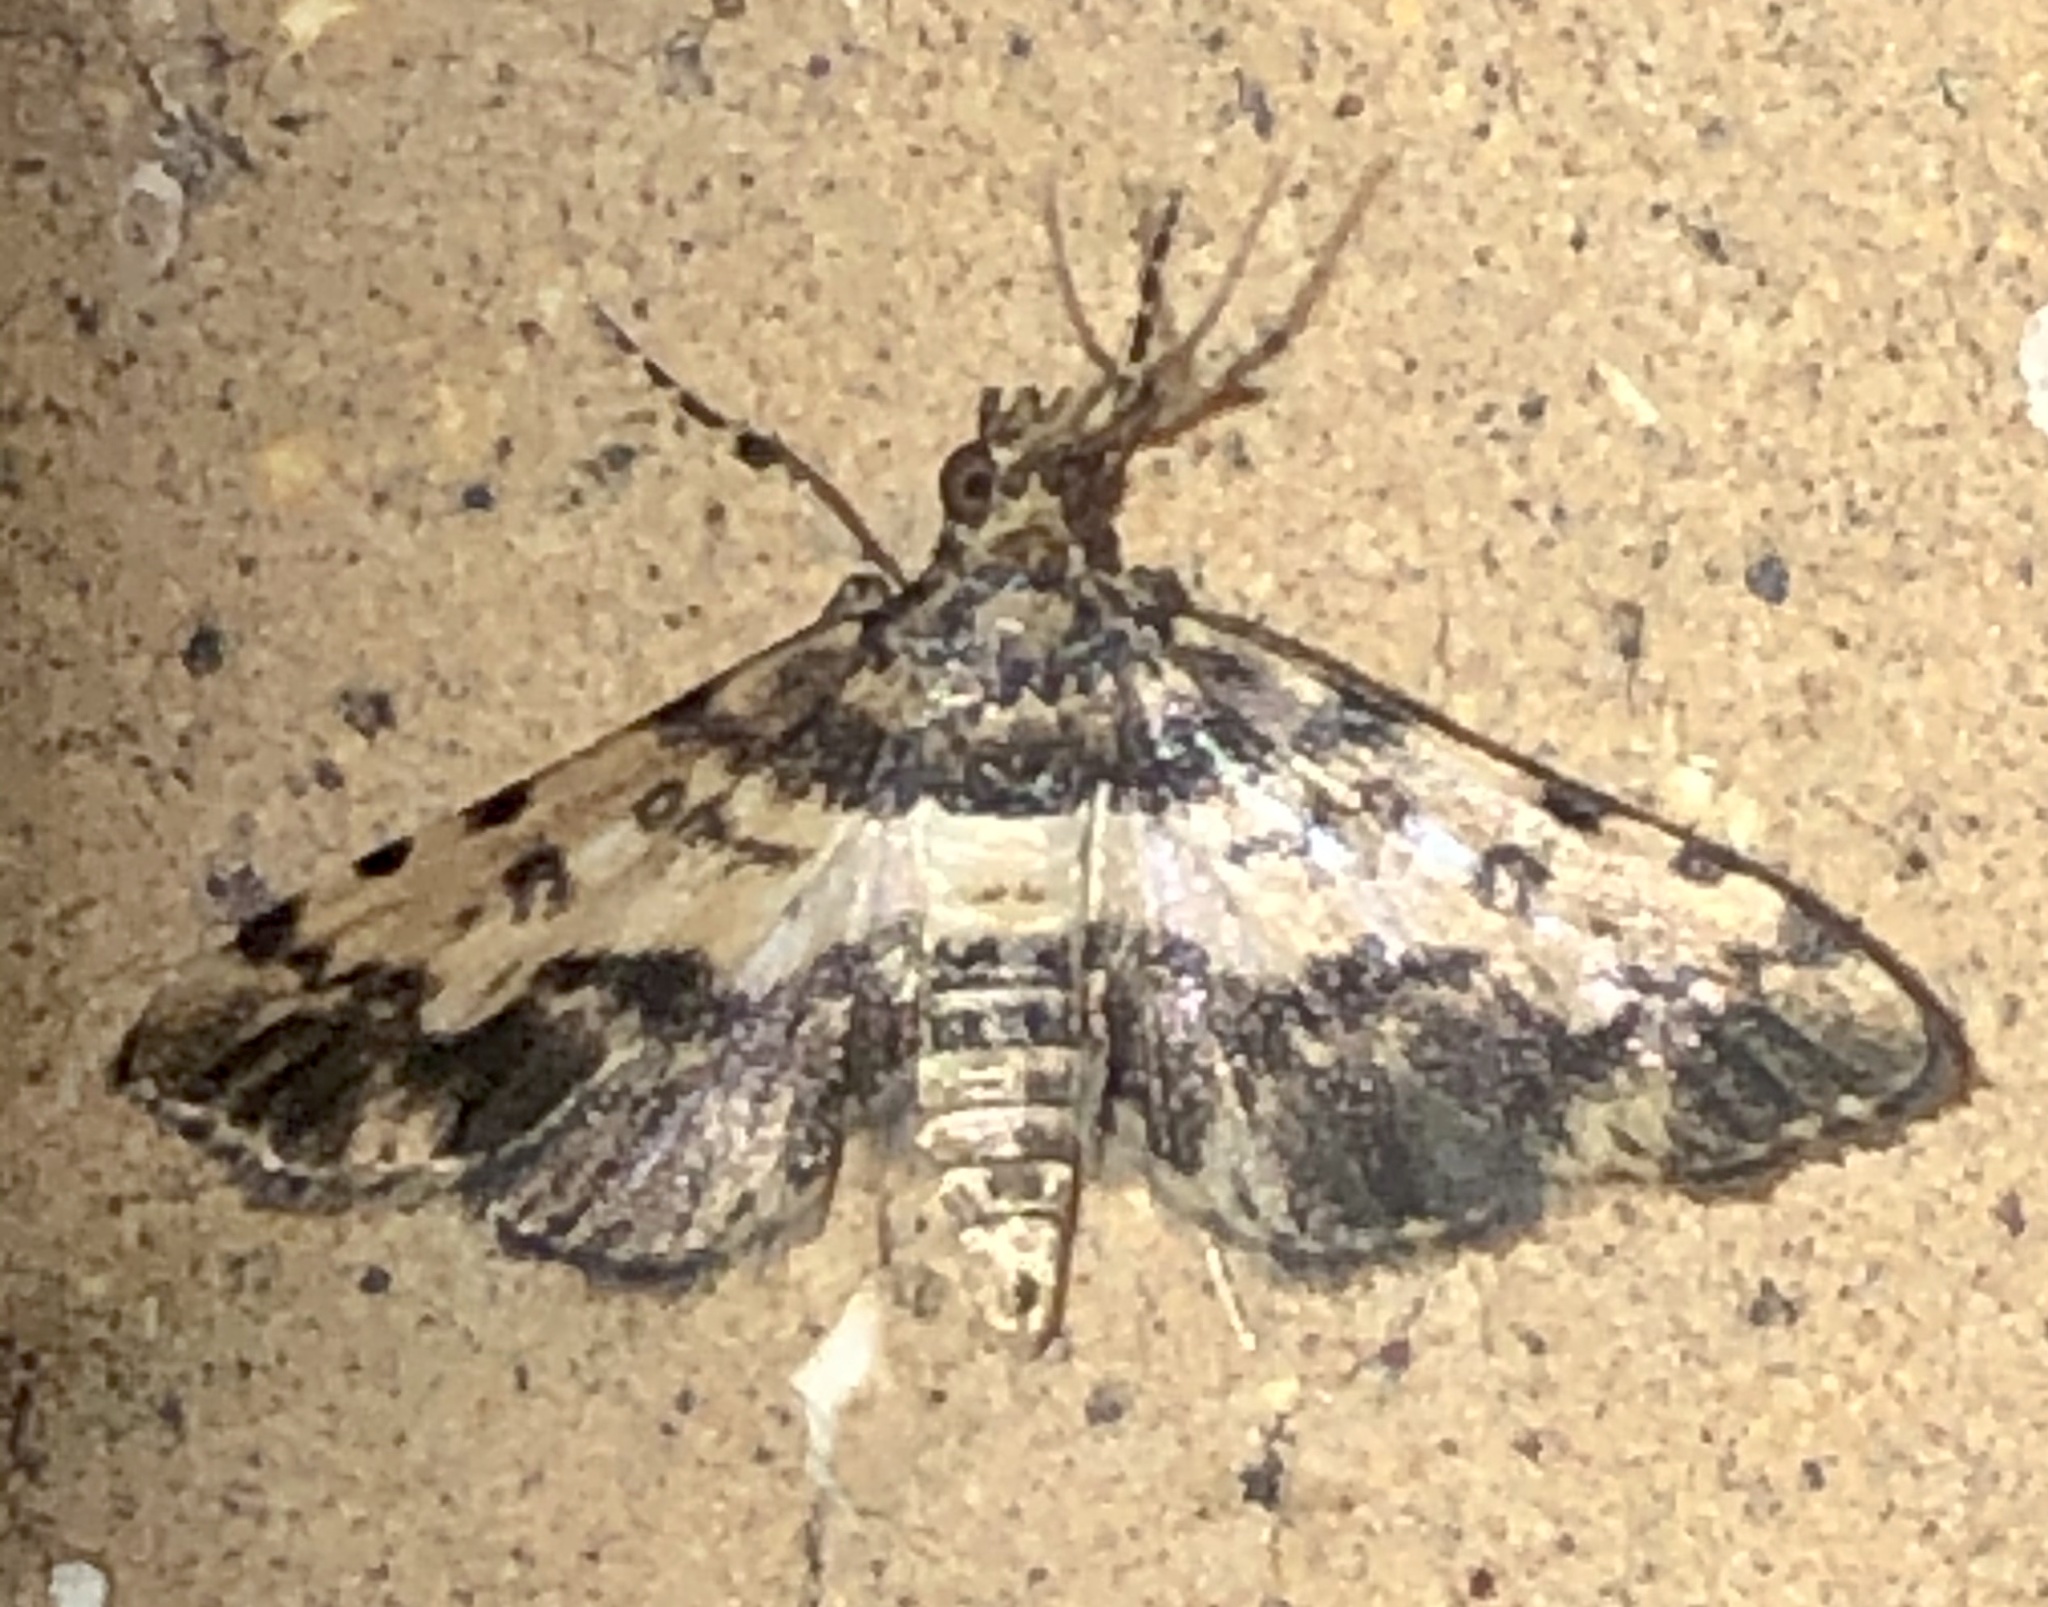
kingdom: Animalia
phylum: Arthropoda
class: Insecta
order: Lepidoptera
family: Crambidae
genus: Nacoleia
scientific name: Nacoleia amphicedalis
